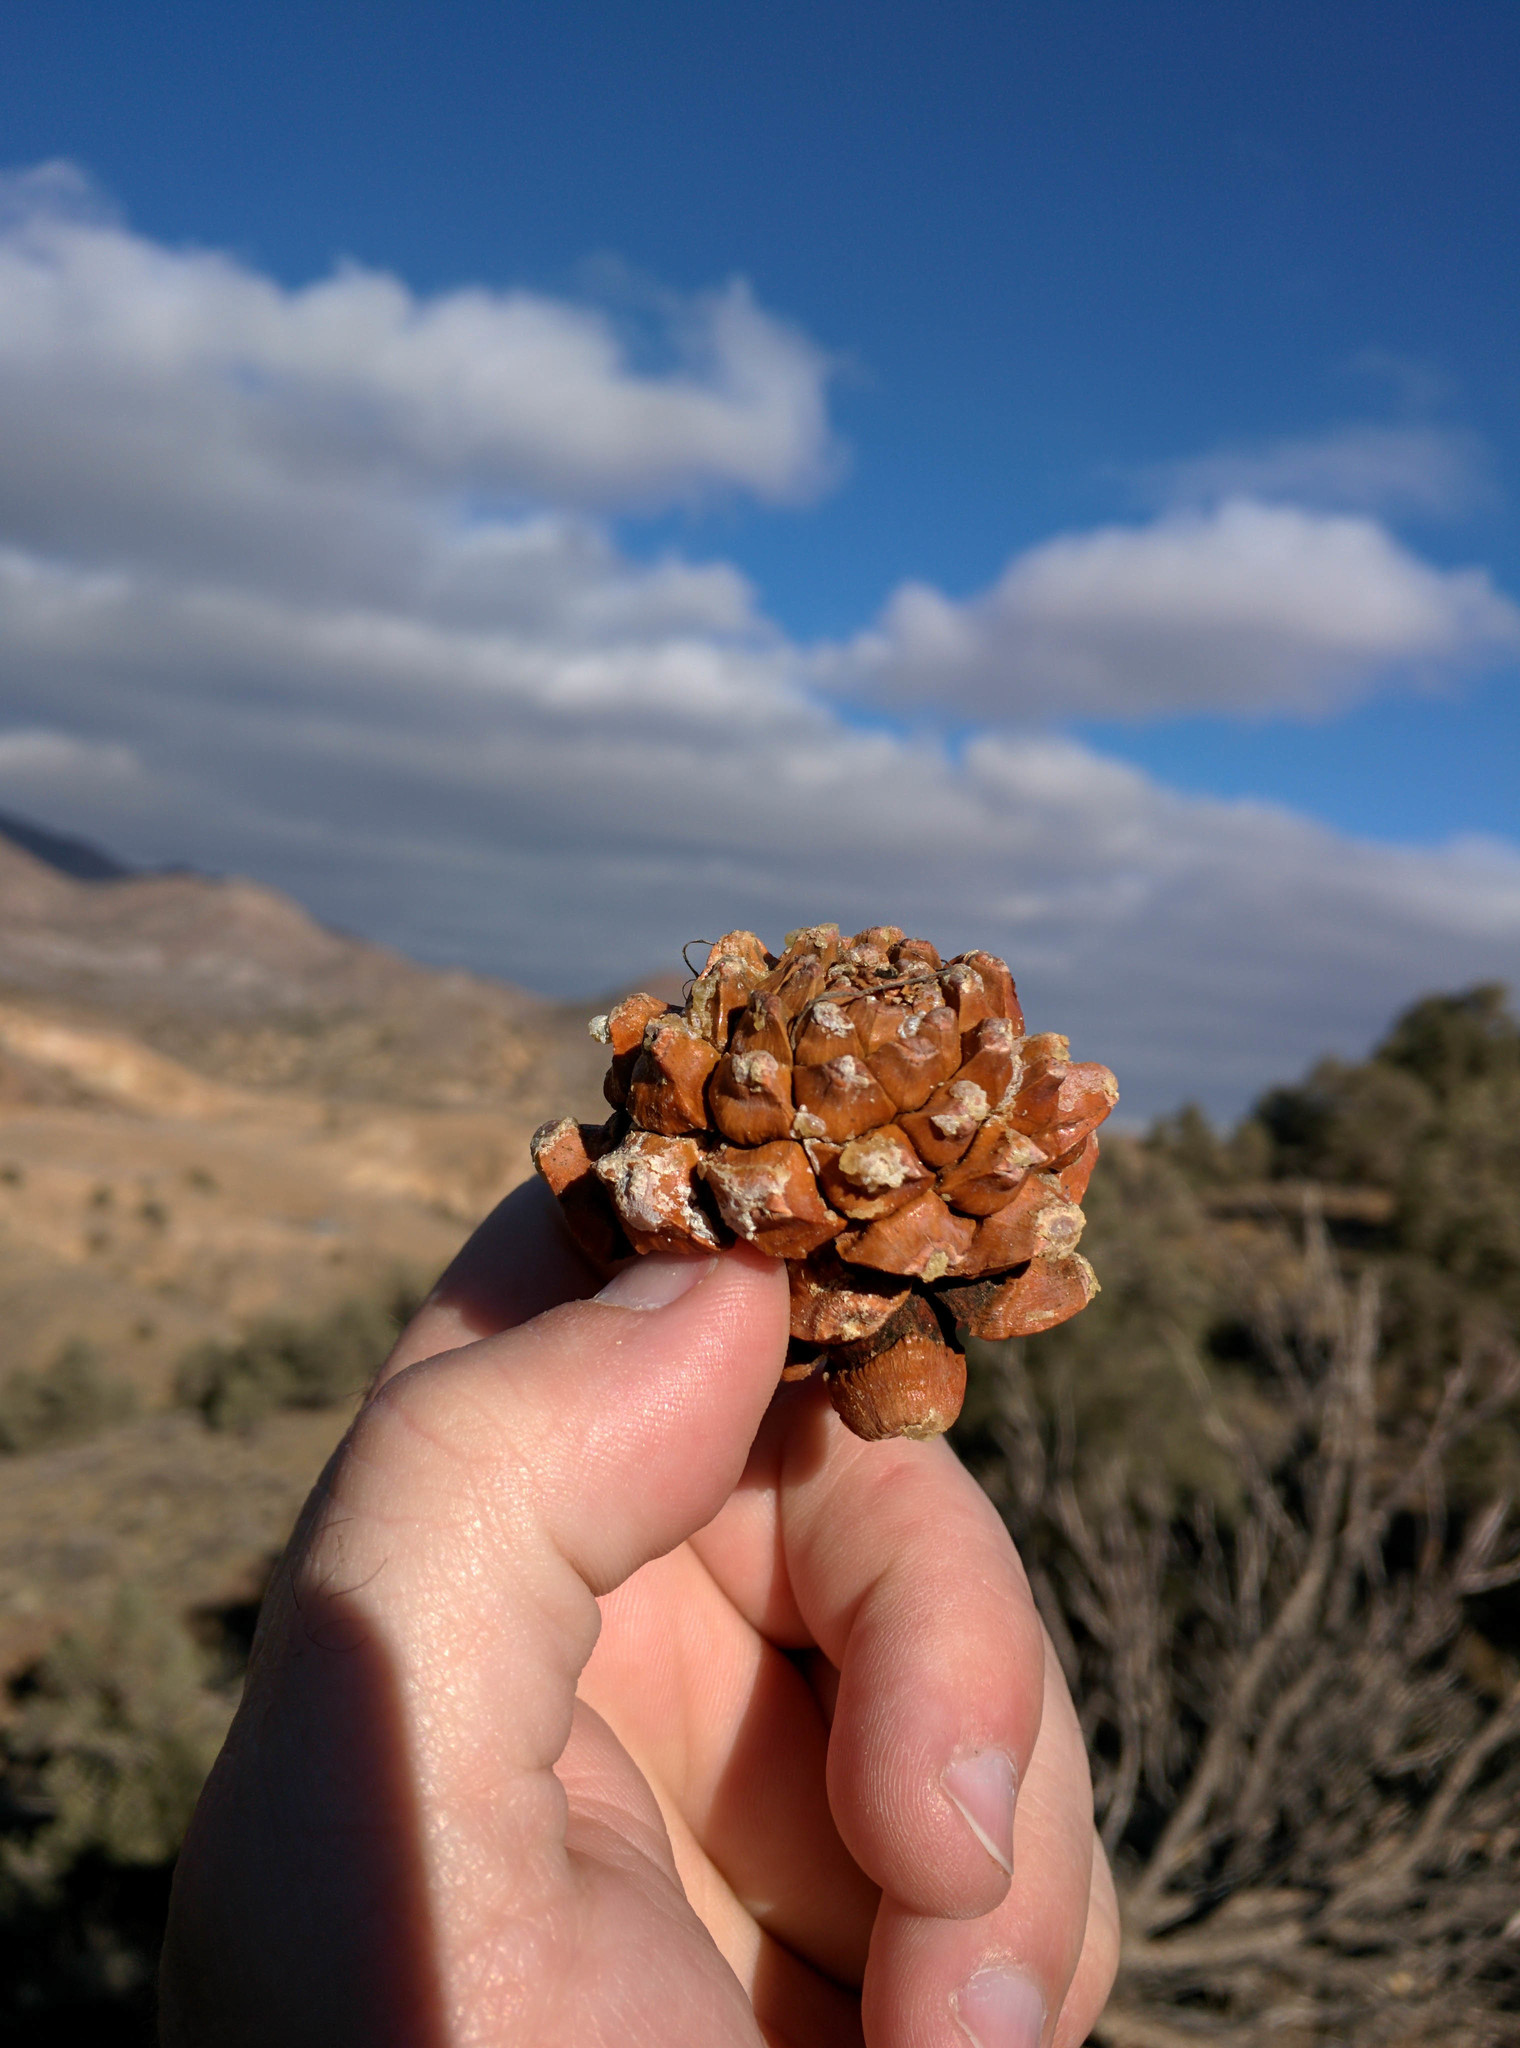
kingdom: Plantae
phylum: Tracheophyta
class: Pinopsida
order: Pinales
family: Pinaceae
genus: Pinus
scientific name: Pinus monophylla
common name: One-leaved nut pine
